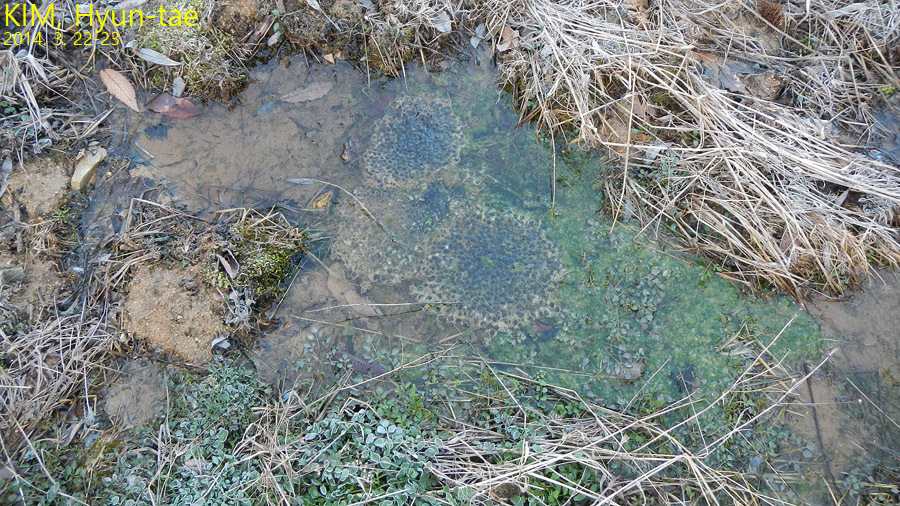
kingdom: Animalia
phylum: Chordata
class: Amphibia
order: Anura
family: Ranidae
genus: Rana
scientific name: Rana uenoi
